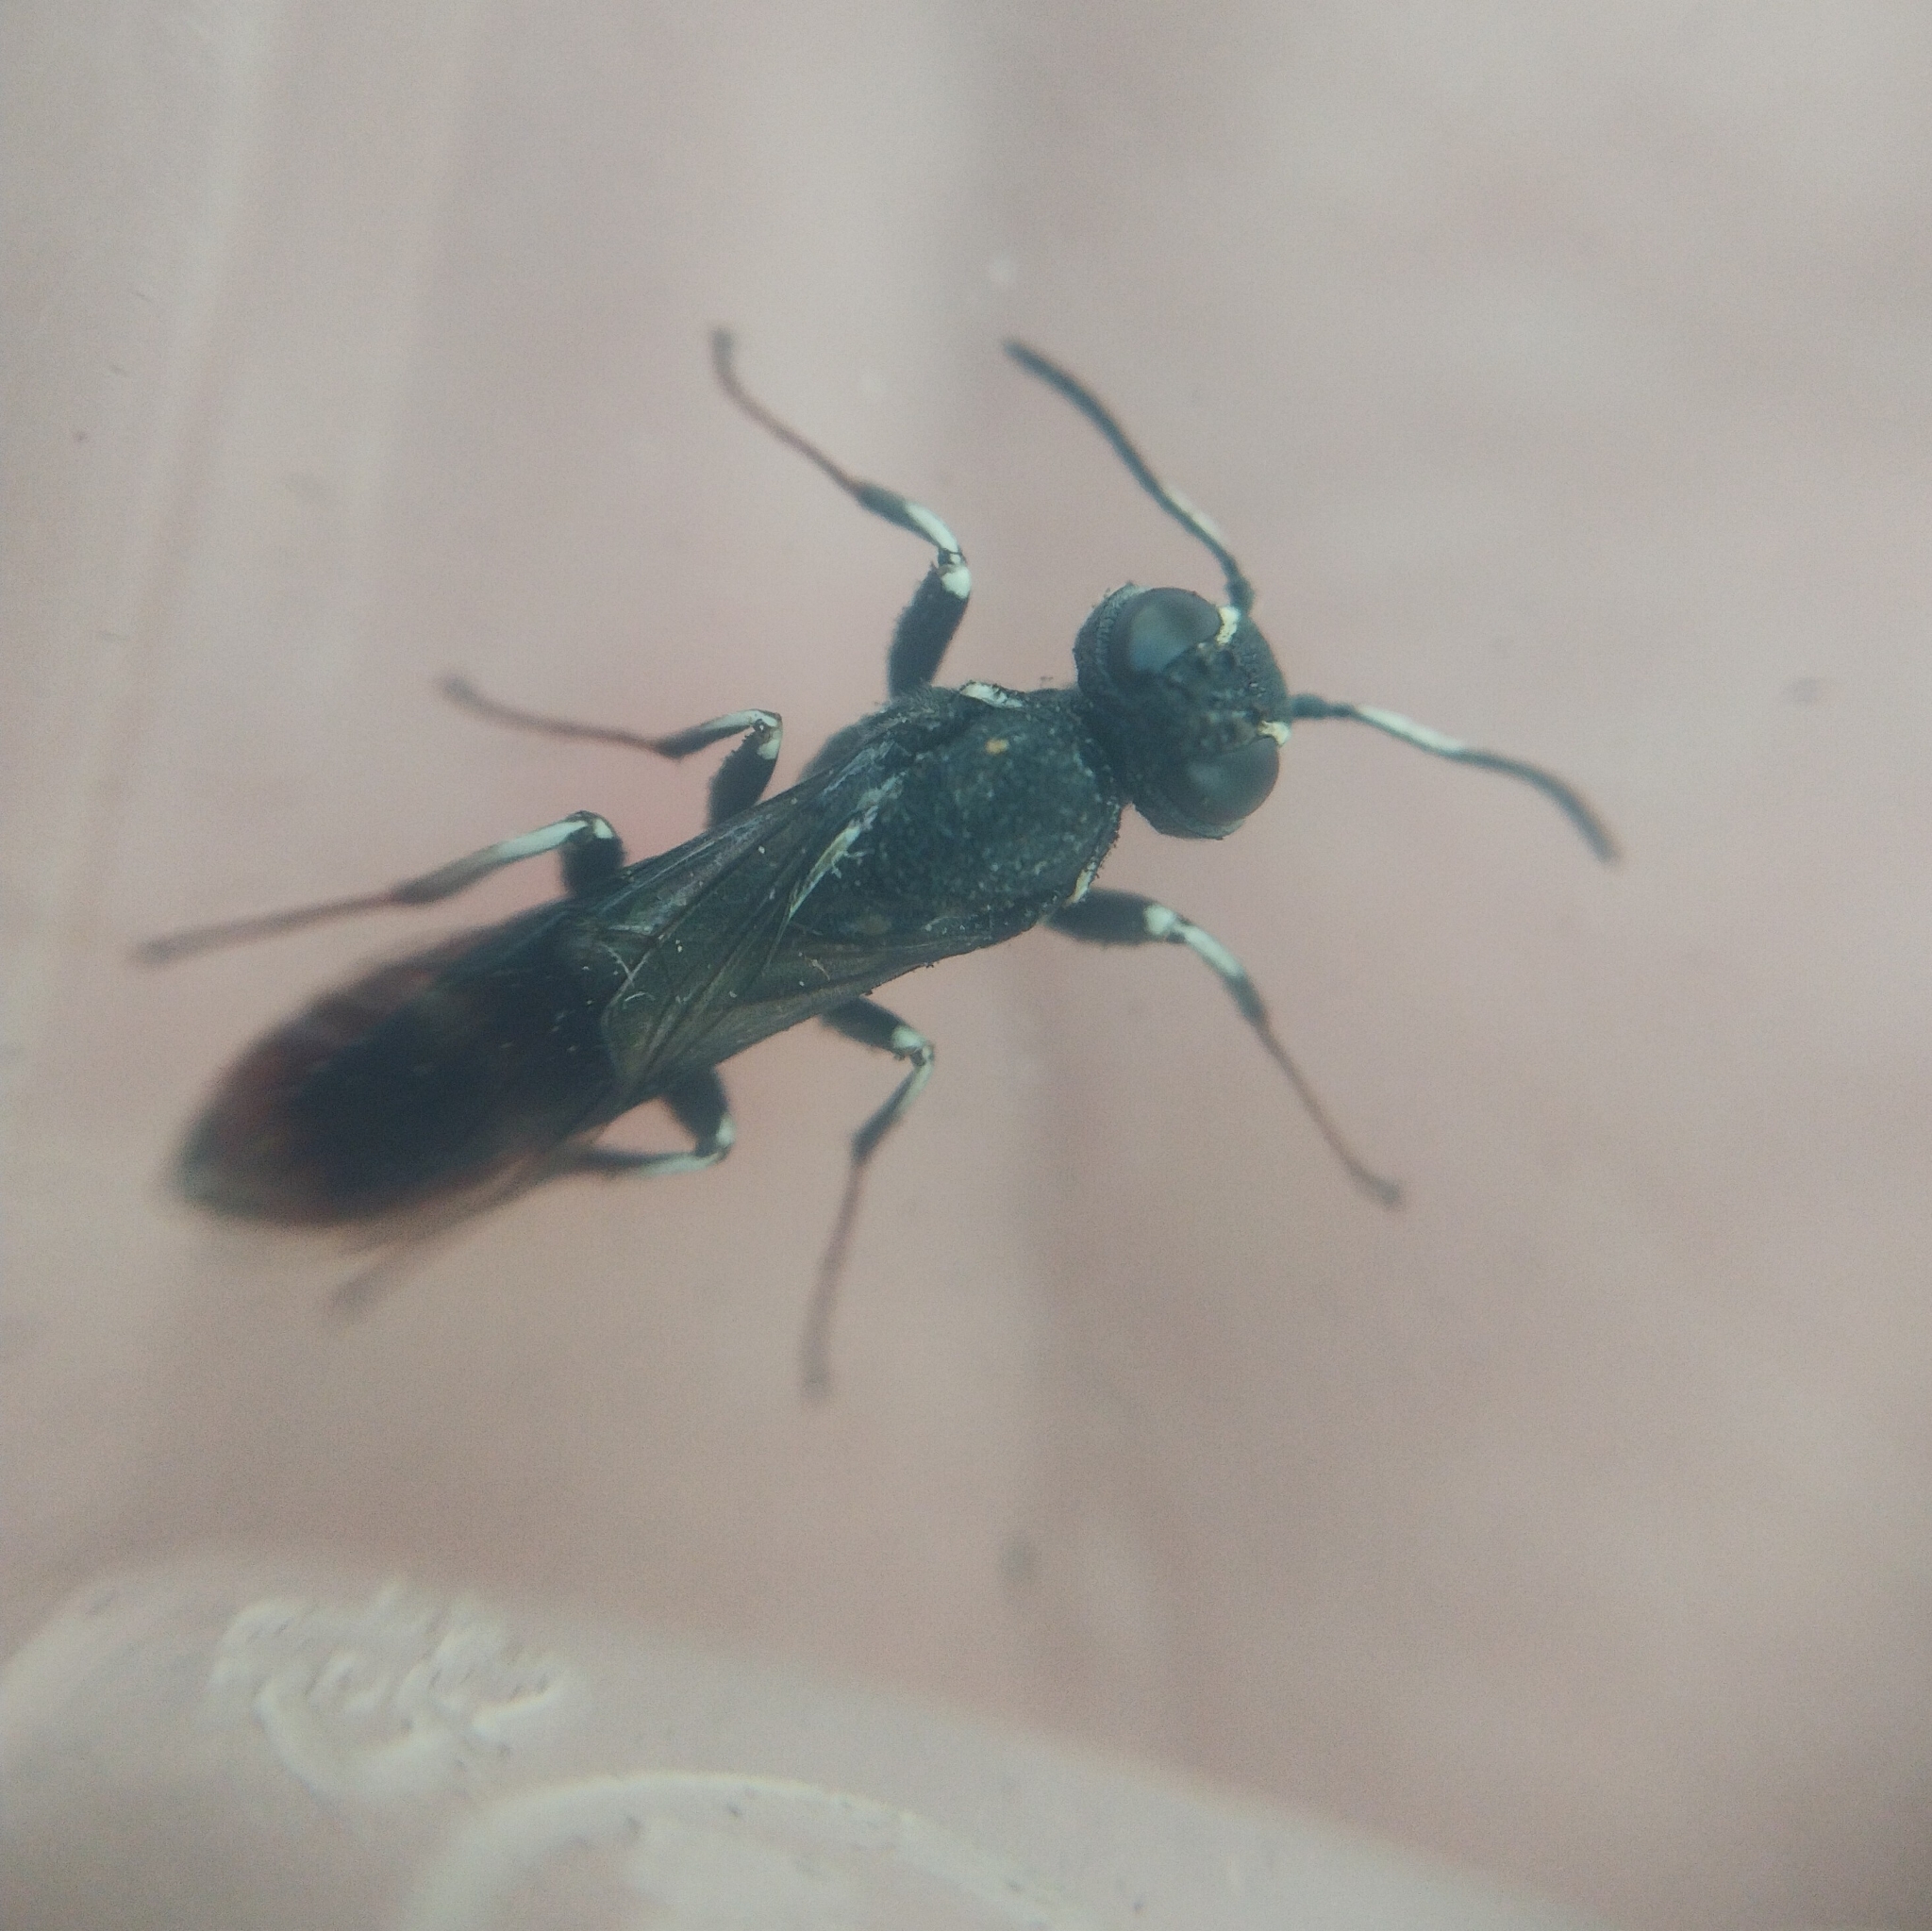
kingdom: Animalia
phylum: Arthropoda
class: Insecta
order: Hymenoptera
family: Orussusidae
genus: Orussus
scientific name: Orussus abietinus
